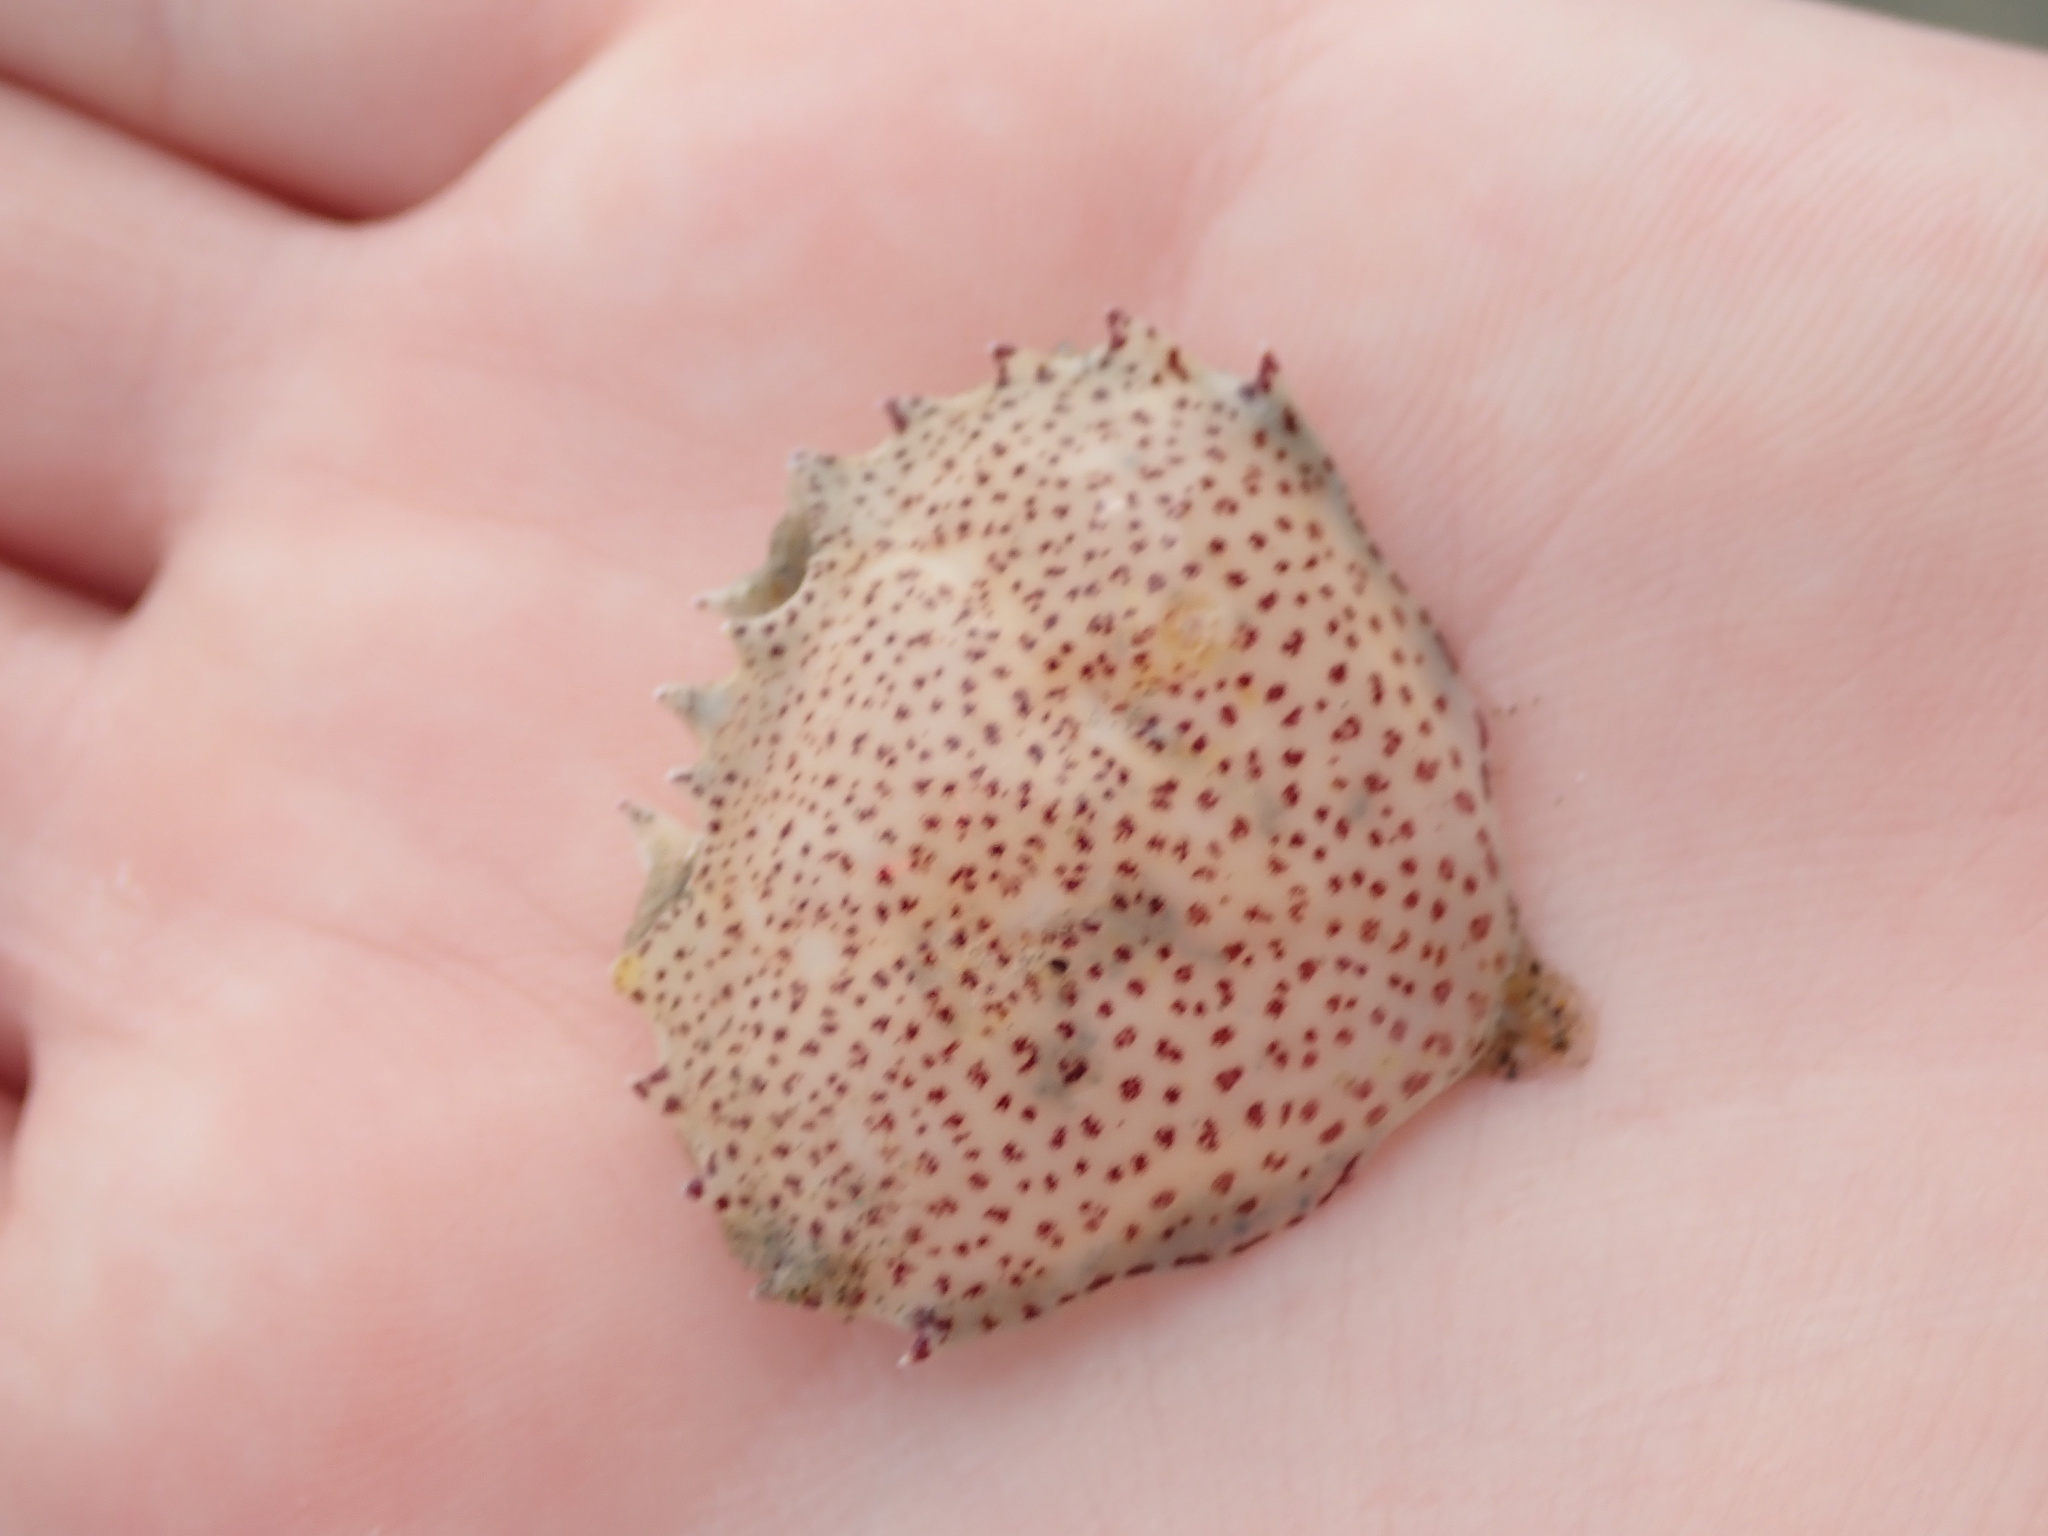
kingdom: Animalia
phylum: Arthropoda
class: Malacostraca
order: Decapoda
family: Ovalipidae
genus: Ovalipes
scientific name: Ovalipes ocellatus
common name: Lady crab
